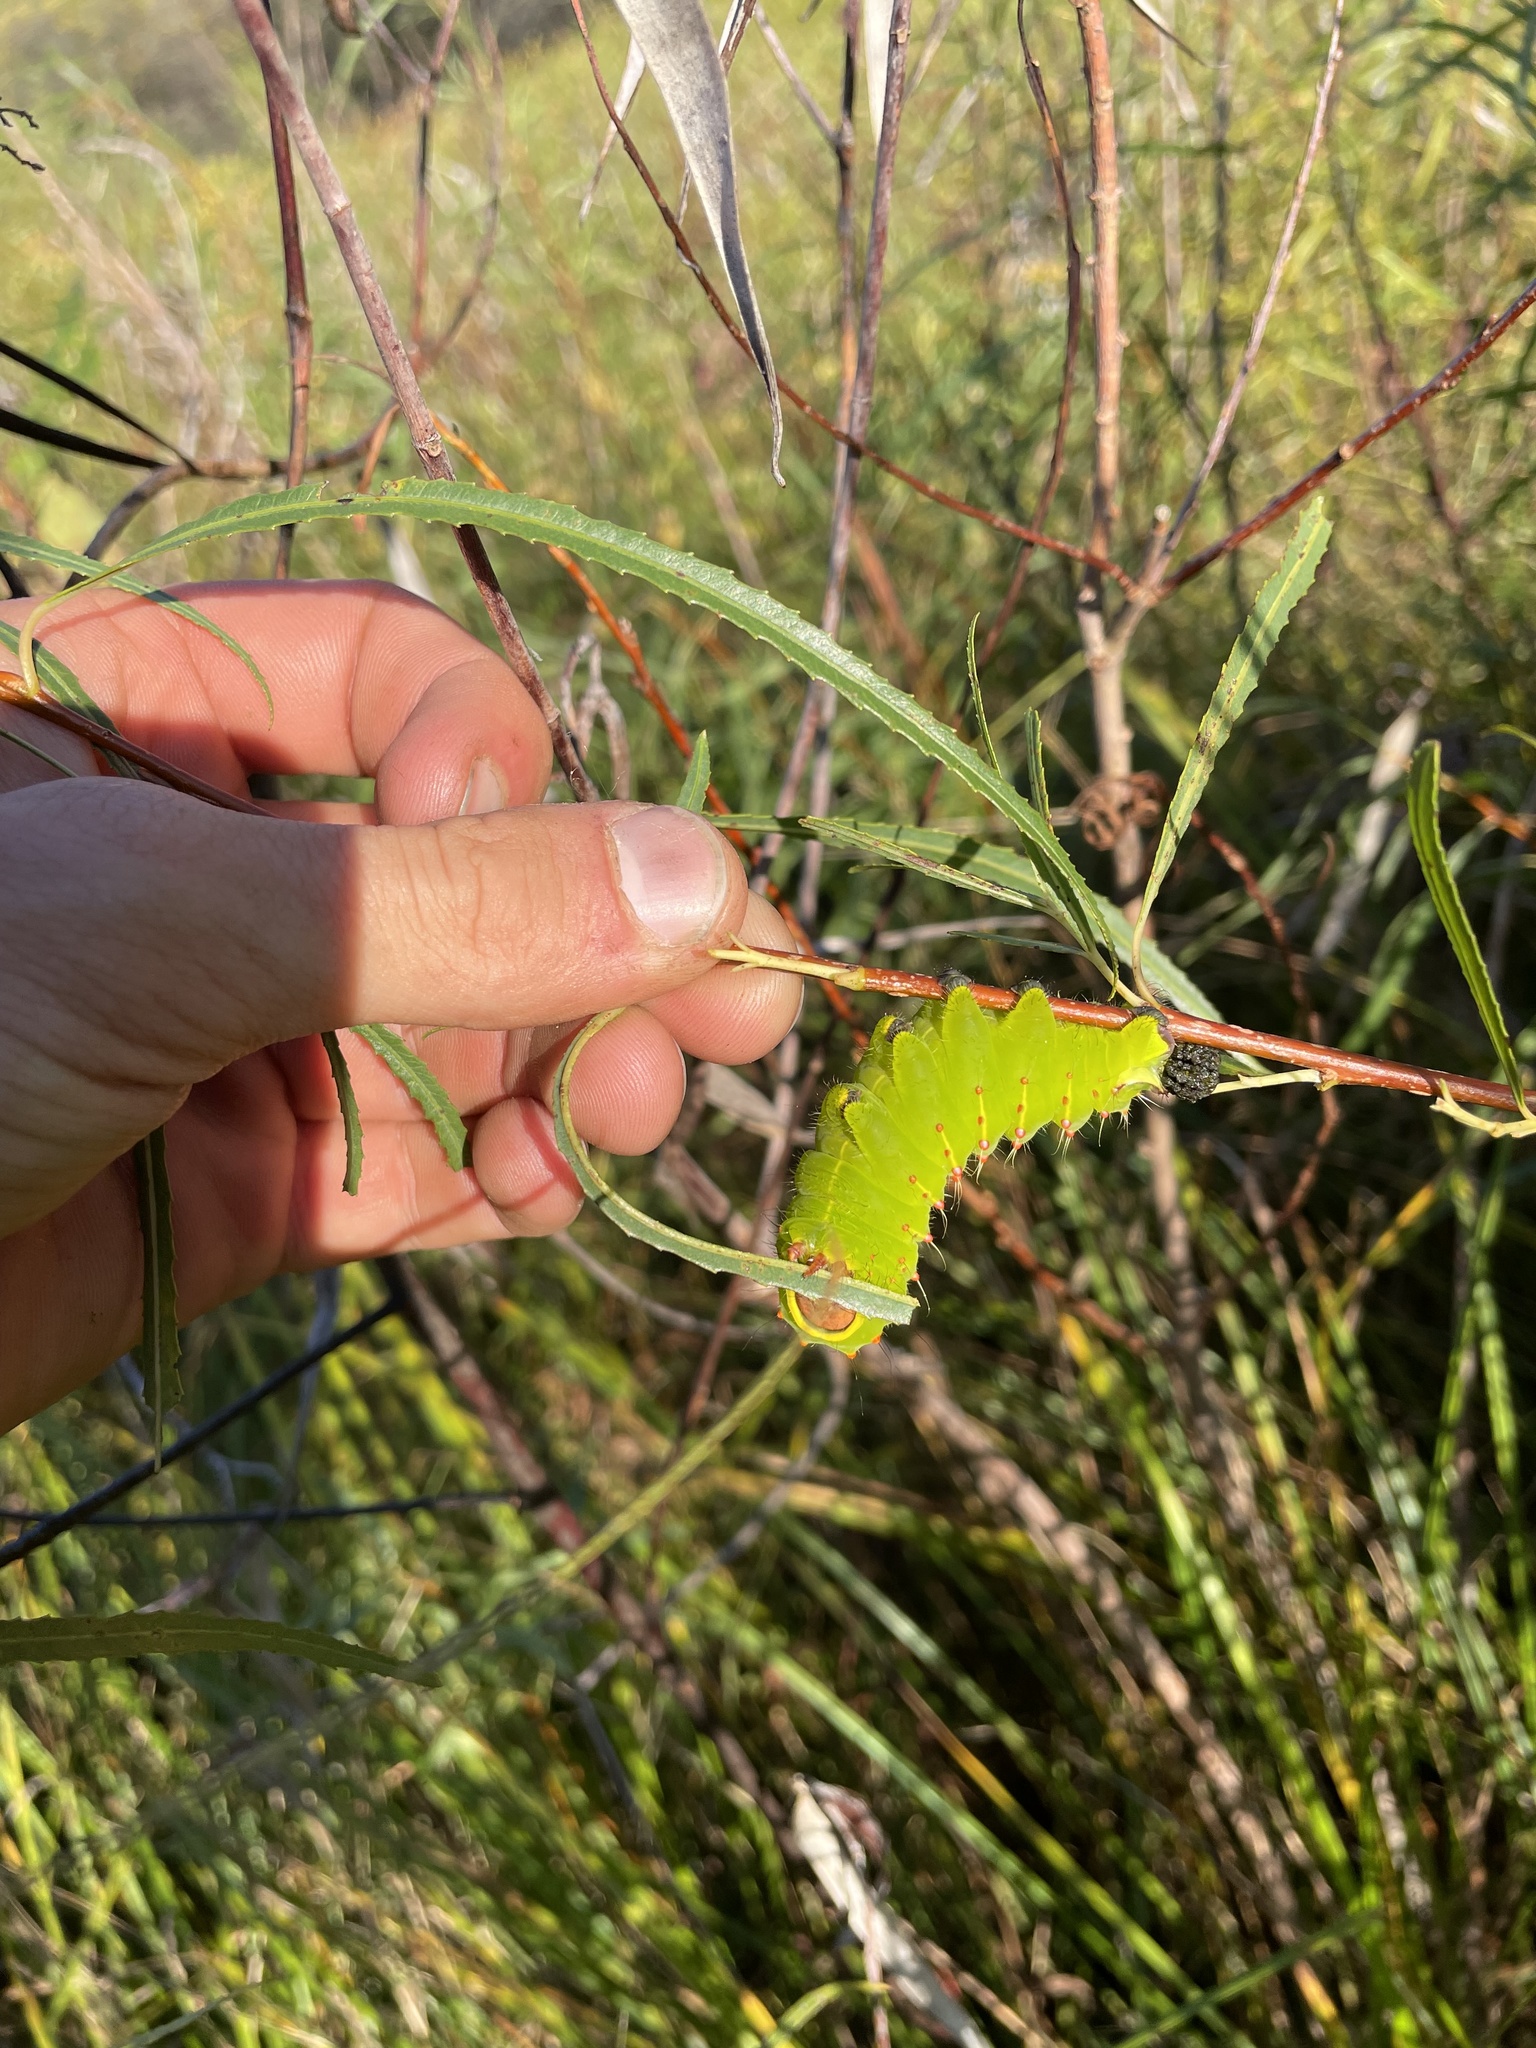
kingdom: Animalia
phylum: Arthropoda
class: Insecta
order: Lepidoptera
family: Saturniidae
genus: Antheraea
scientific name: Antheraea polyphemus
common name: Polyphemus moth
